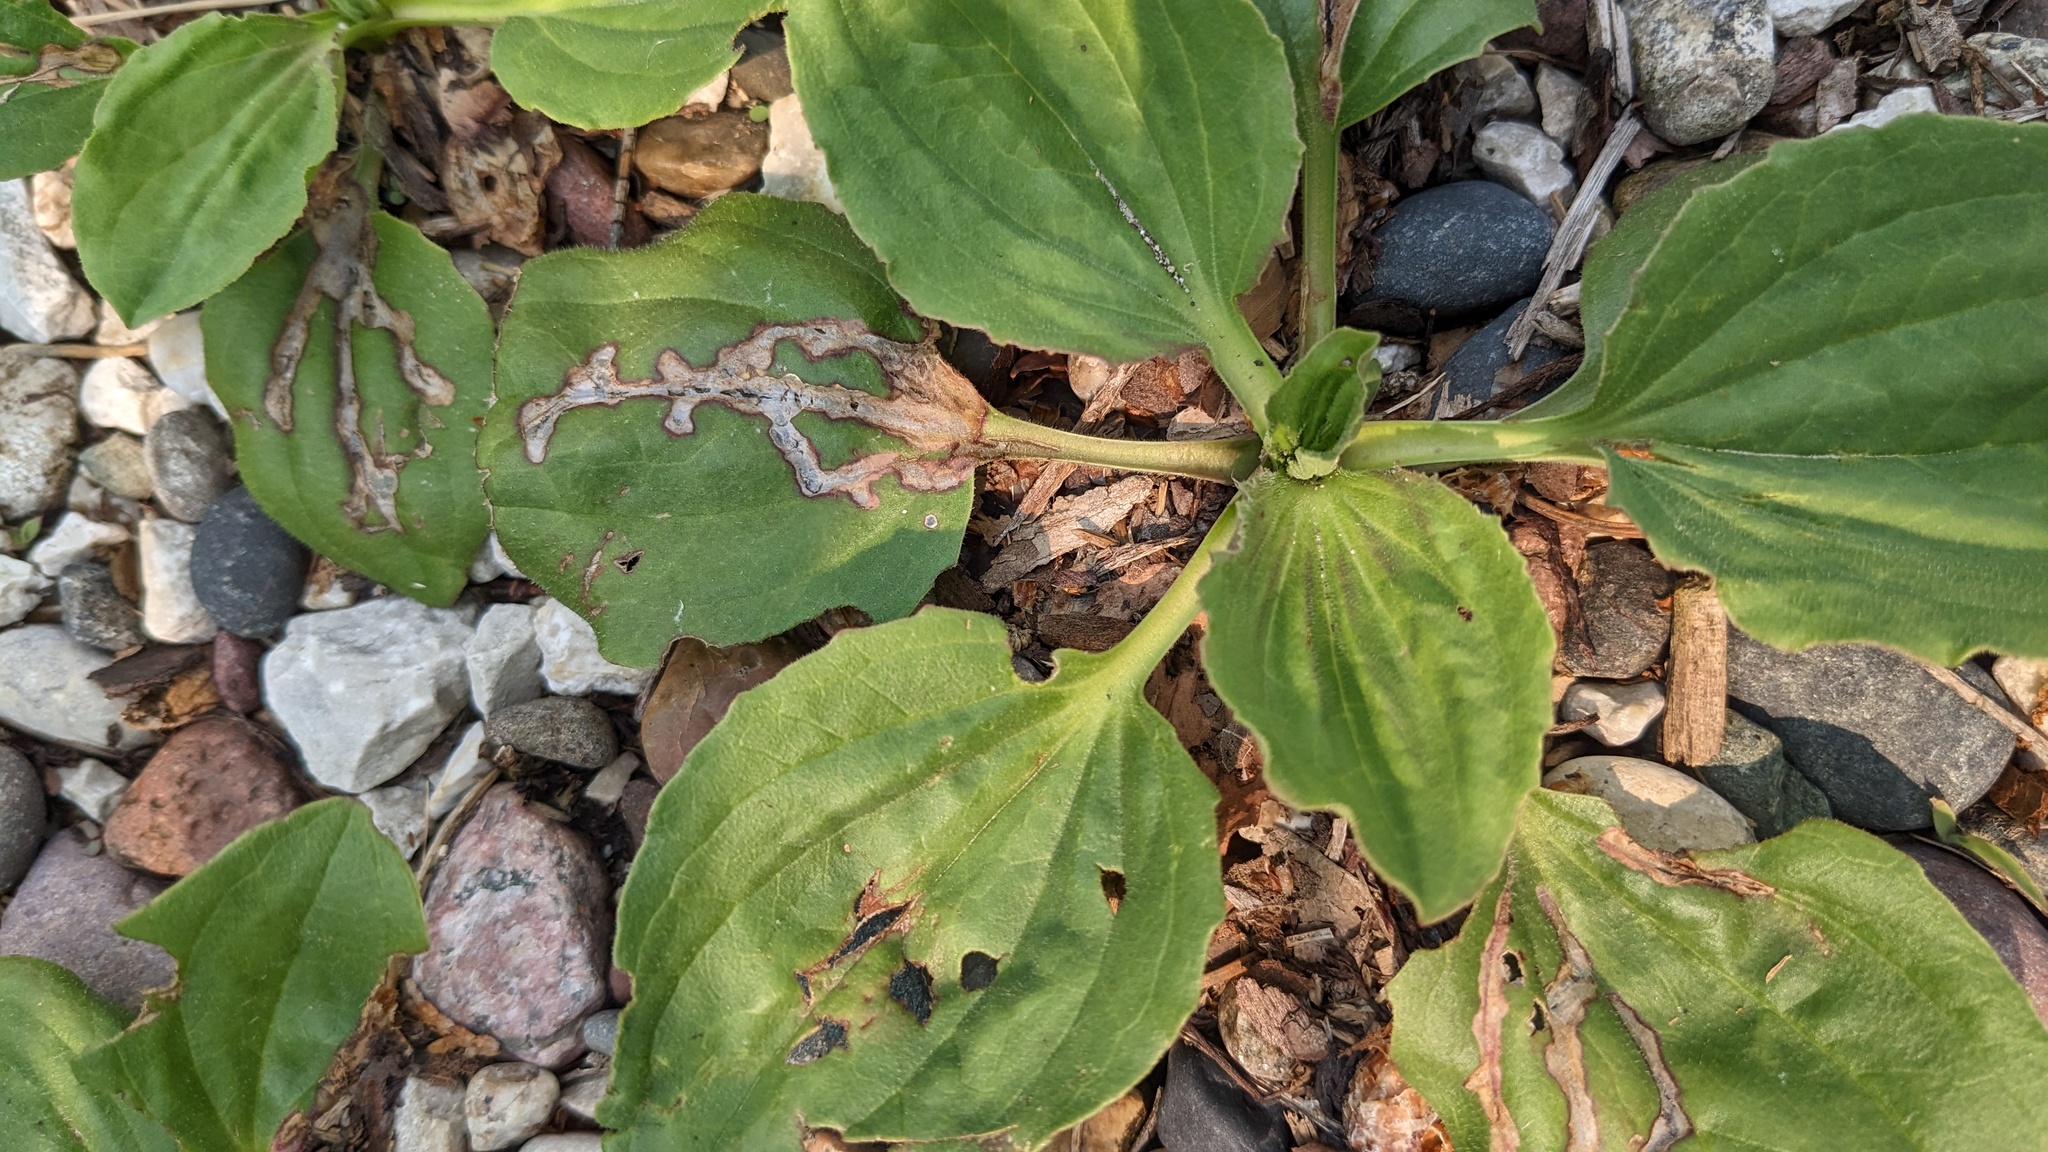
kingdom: Animalia
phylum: Arthropoda
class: Insecta
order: Coleoptera
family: Chrysomelidae
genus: Dibolia
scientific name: Dibolia borealis
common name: Northern plantain flea beetle
